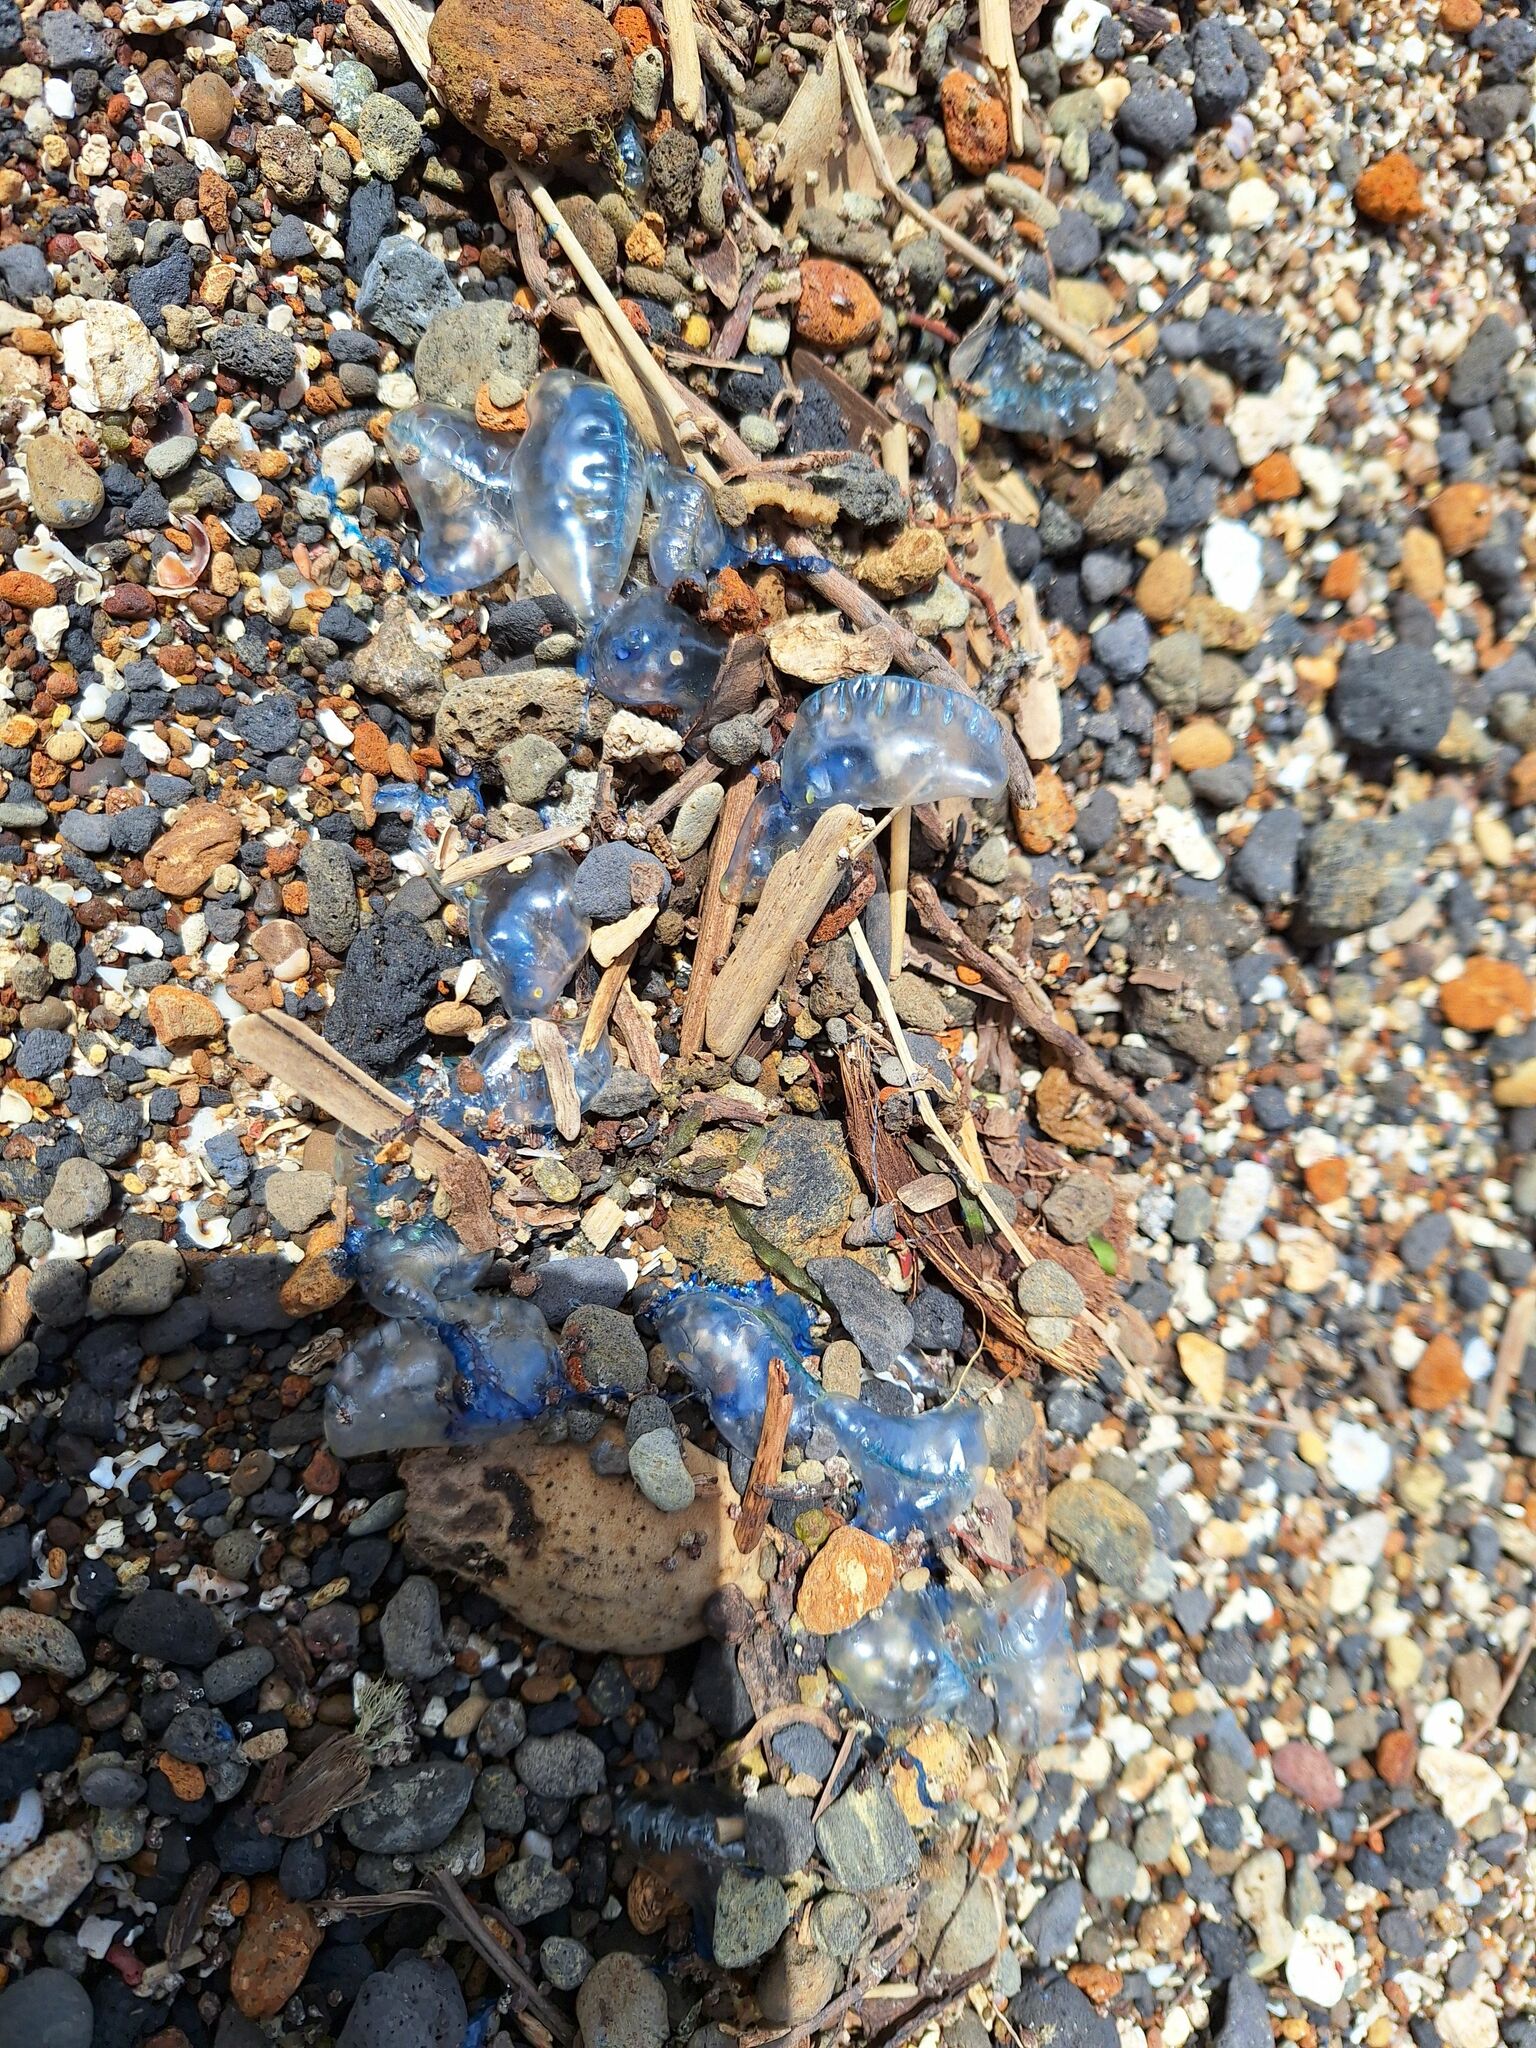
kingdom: Animalia
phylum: Cnidaria
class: Hydrozoa
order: Siphonophorae
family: Physaliidae
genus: Physalia
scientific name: Physalia physalis
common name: Portuguese man-of-war
